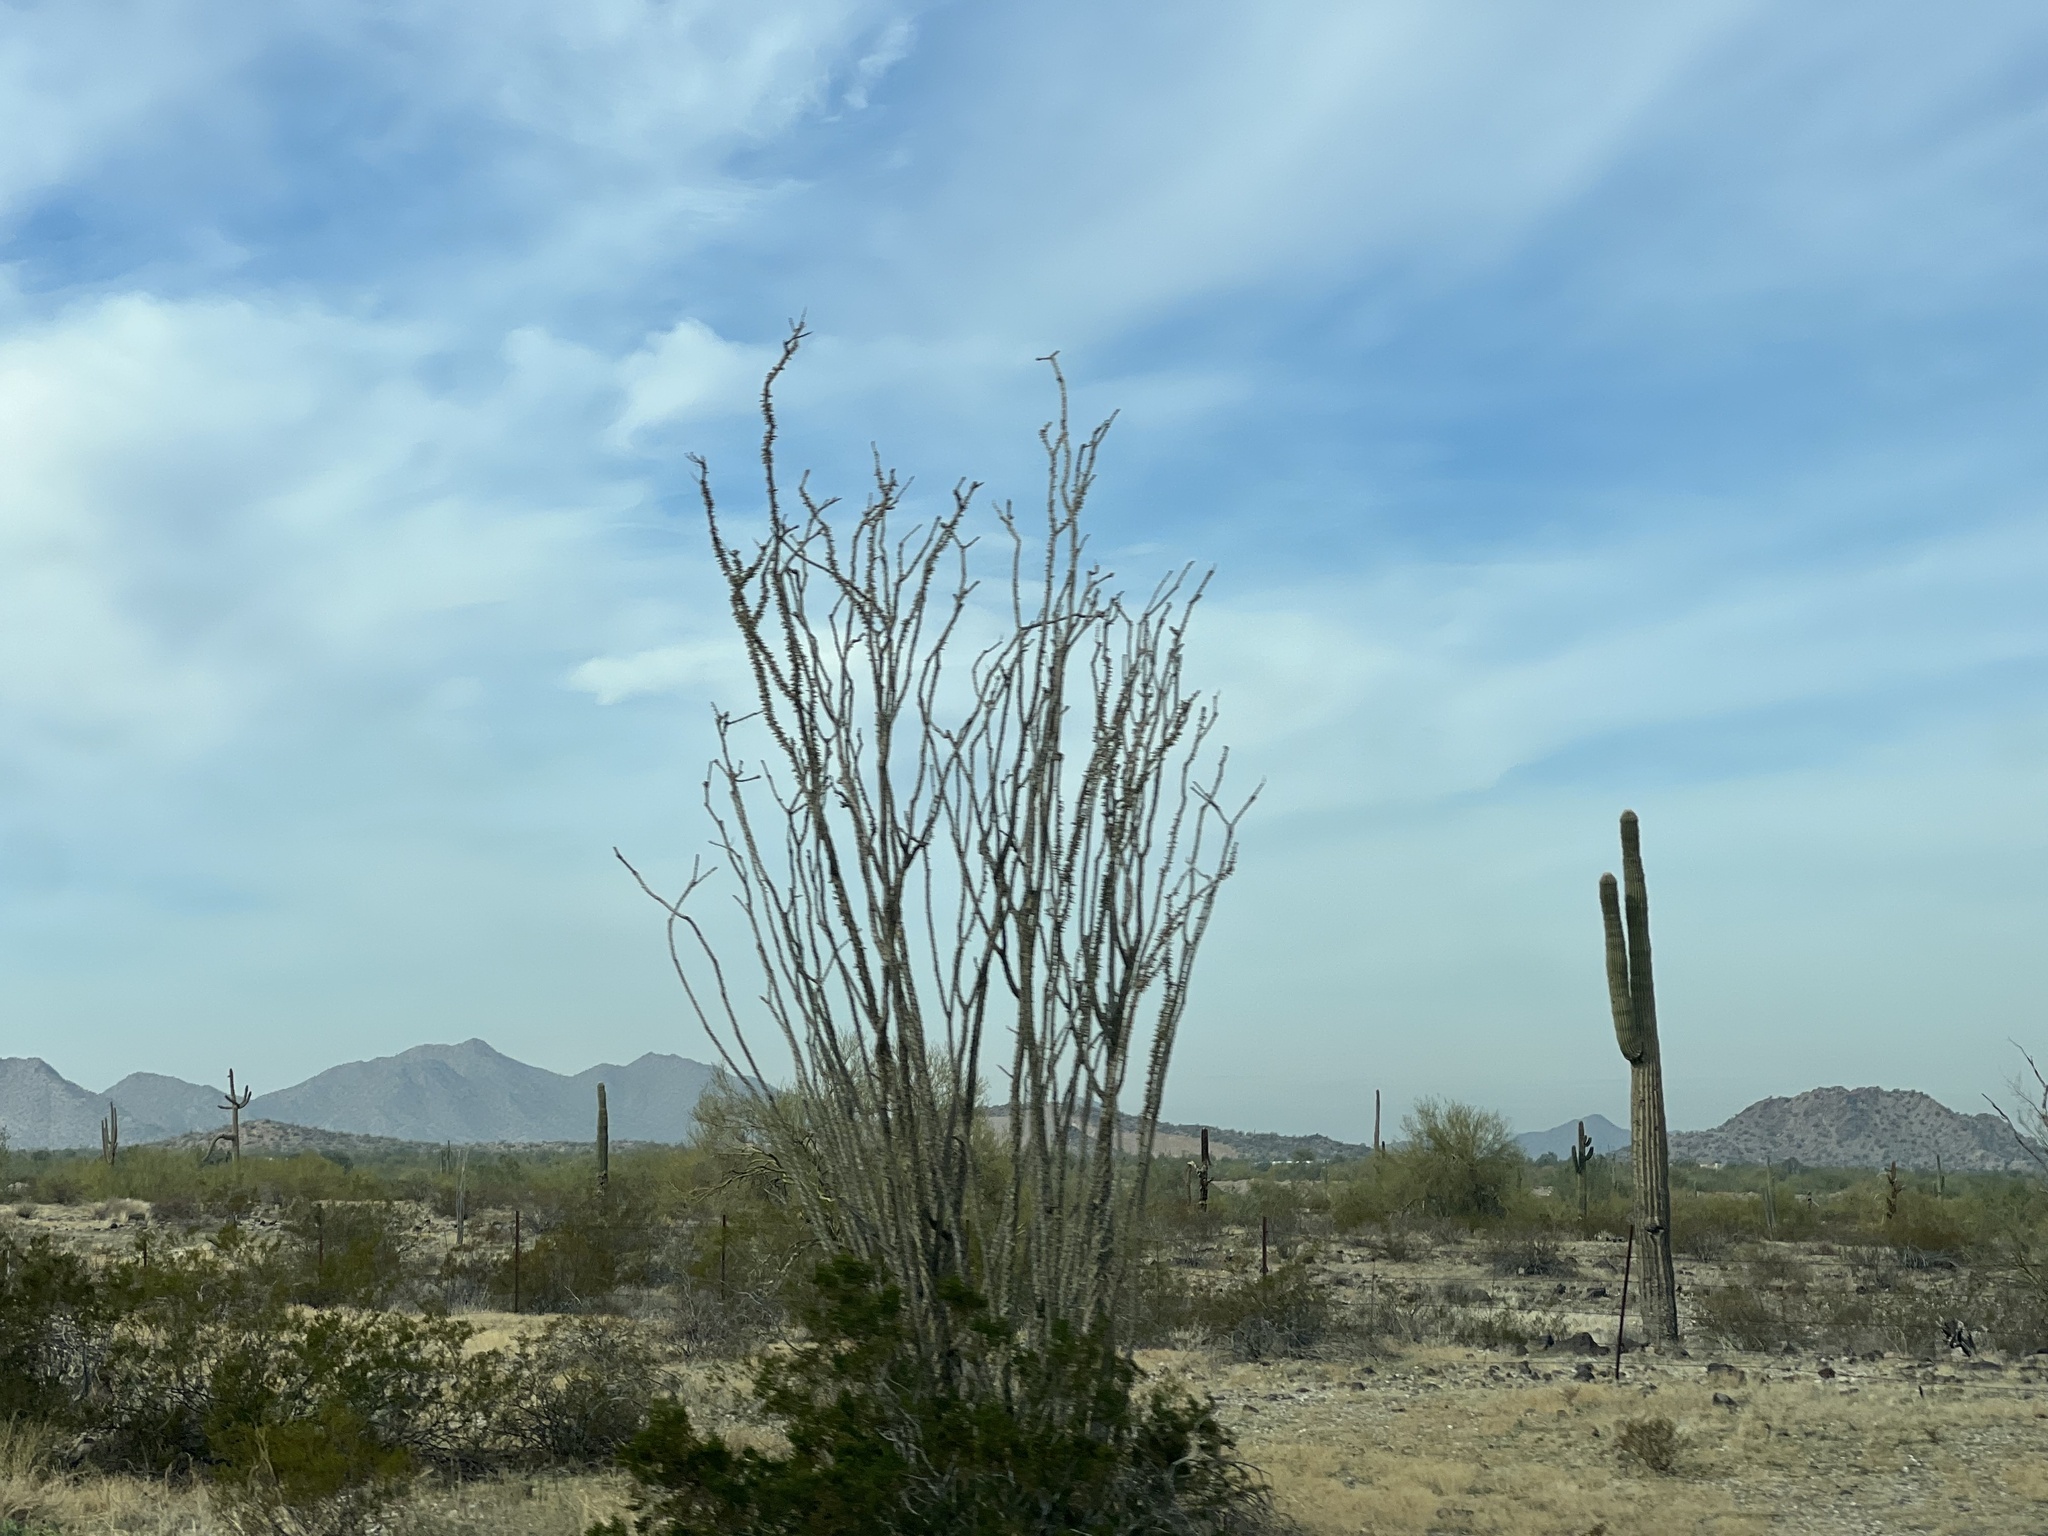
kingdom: Plantae
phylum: Tracheophyta
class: Magnoliopsida
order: Ericales
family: Fouquieriaceae
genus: Fouquieria
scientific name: Fouquieria splendens
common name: Vine-cactus
